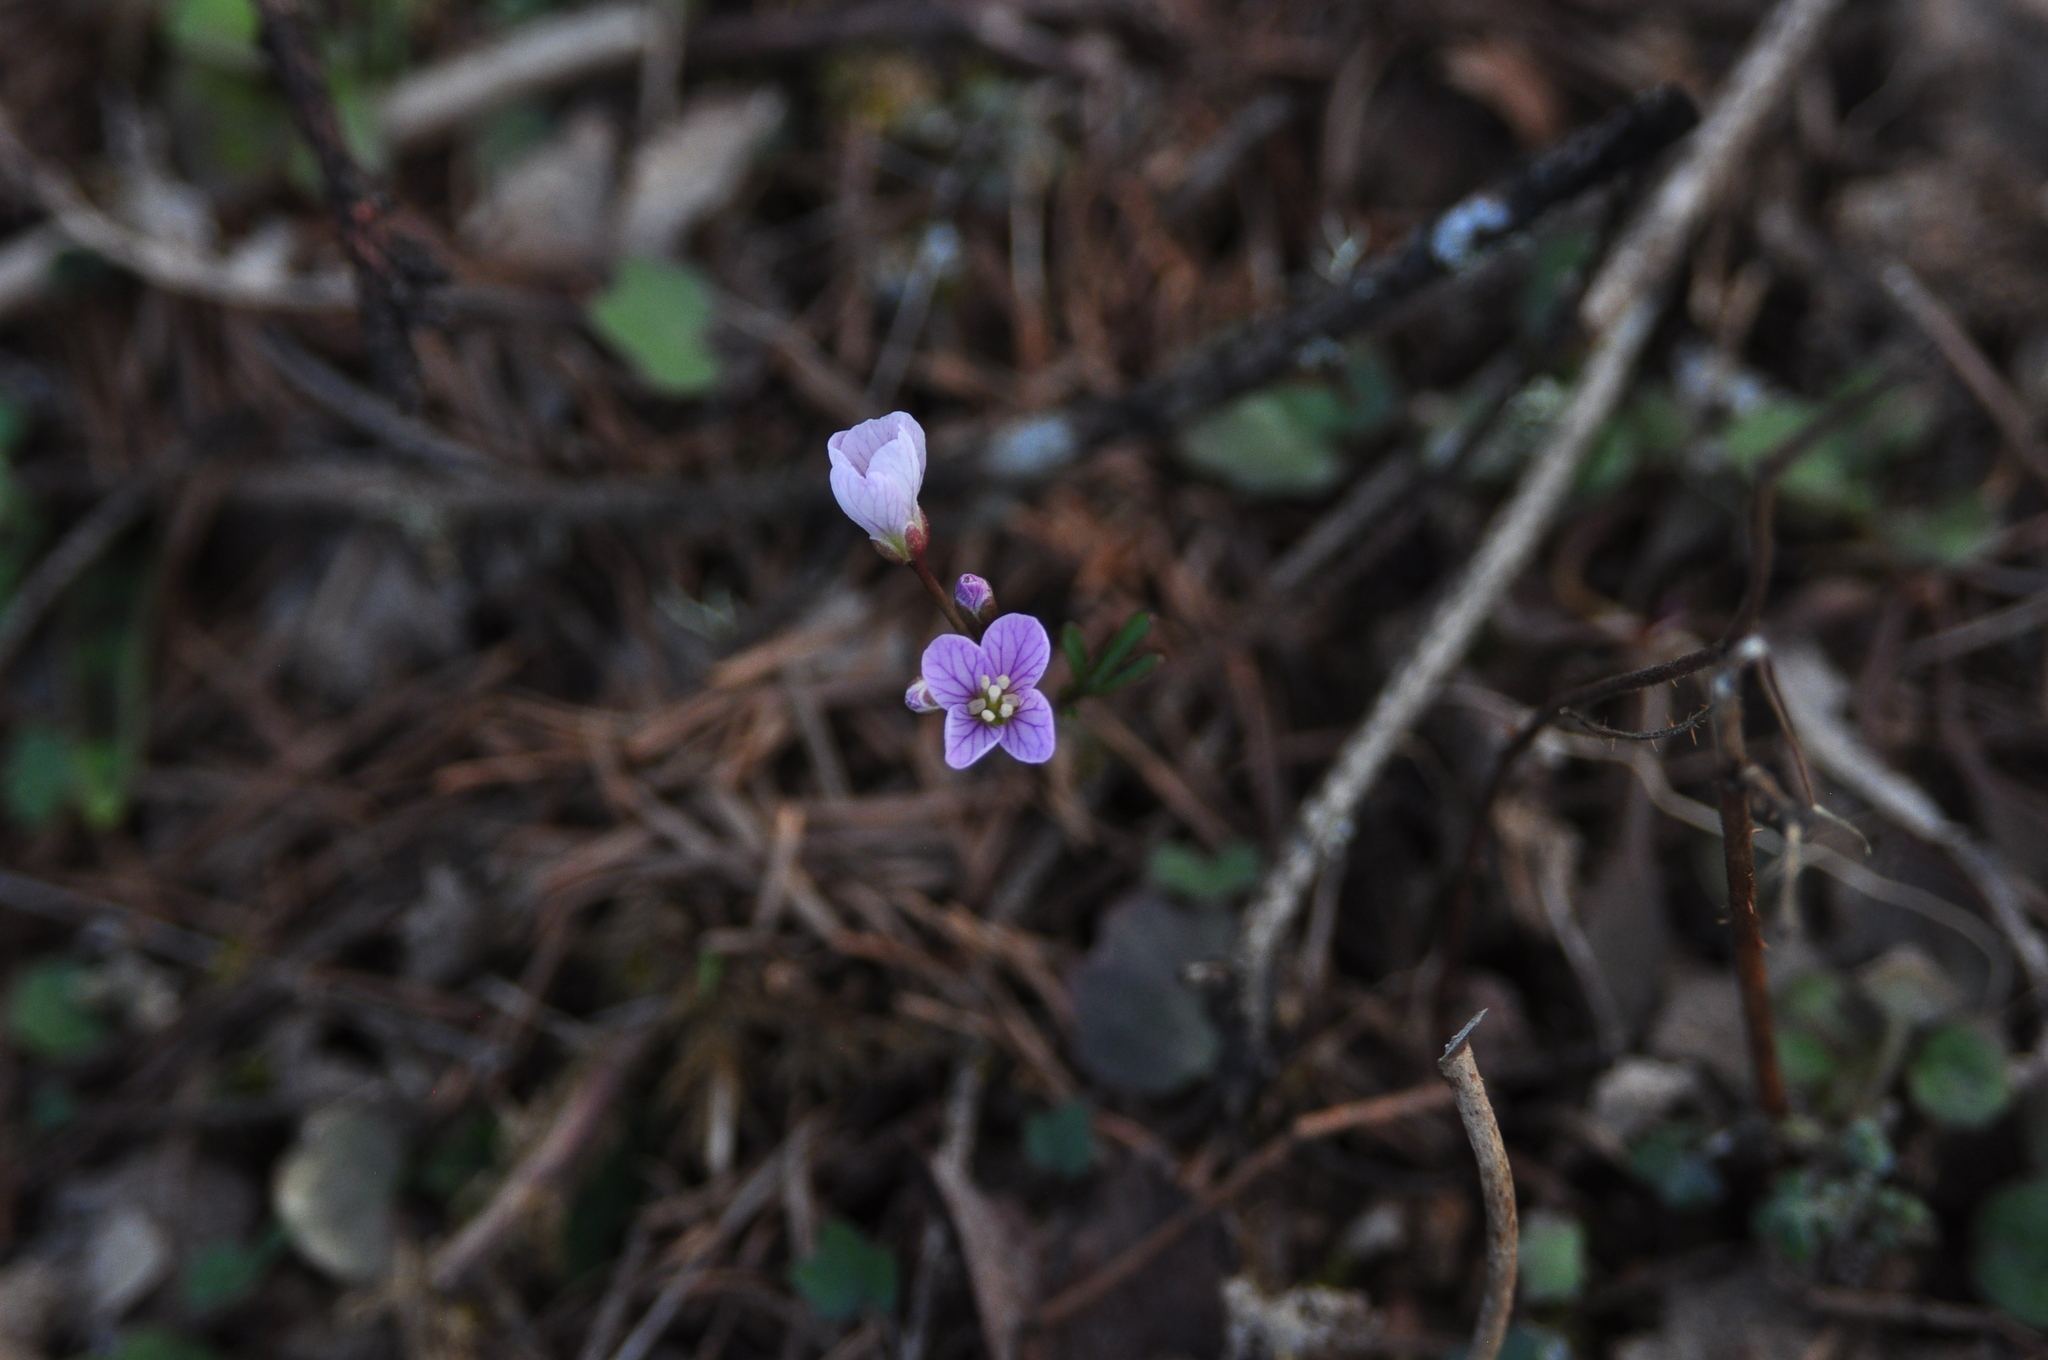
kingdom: Plantae
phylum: Tracheophyta
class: Magnoliopsida
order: Brassicales
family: Brassicaceae
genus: Cardamine
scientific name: Cardamine nuttallii
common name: Nuttall's toothwort
